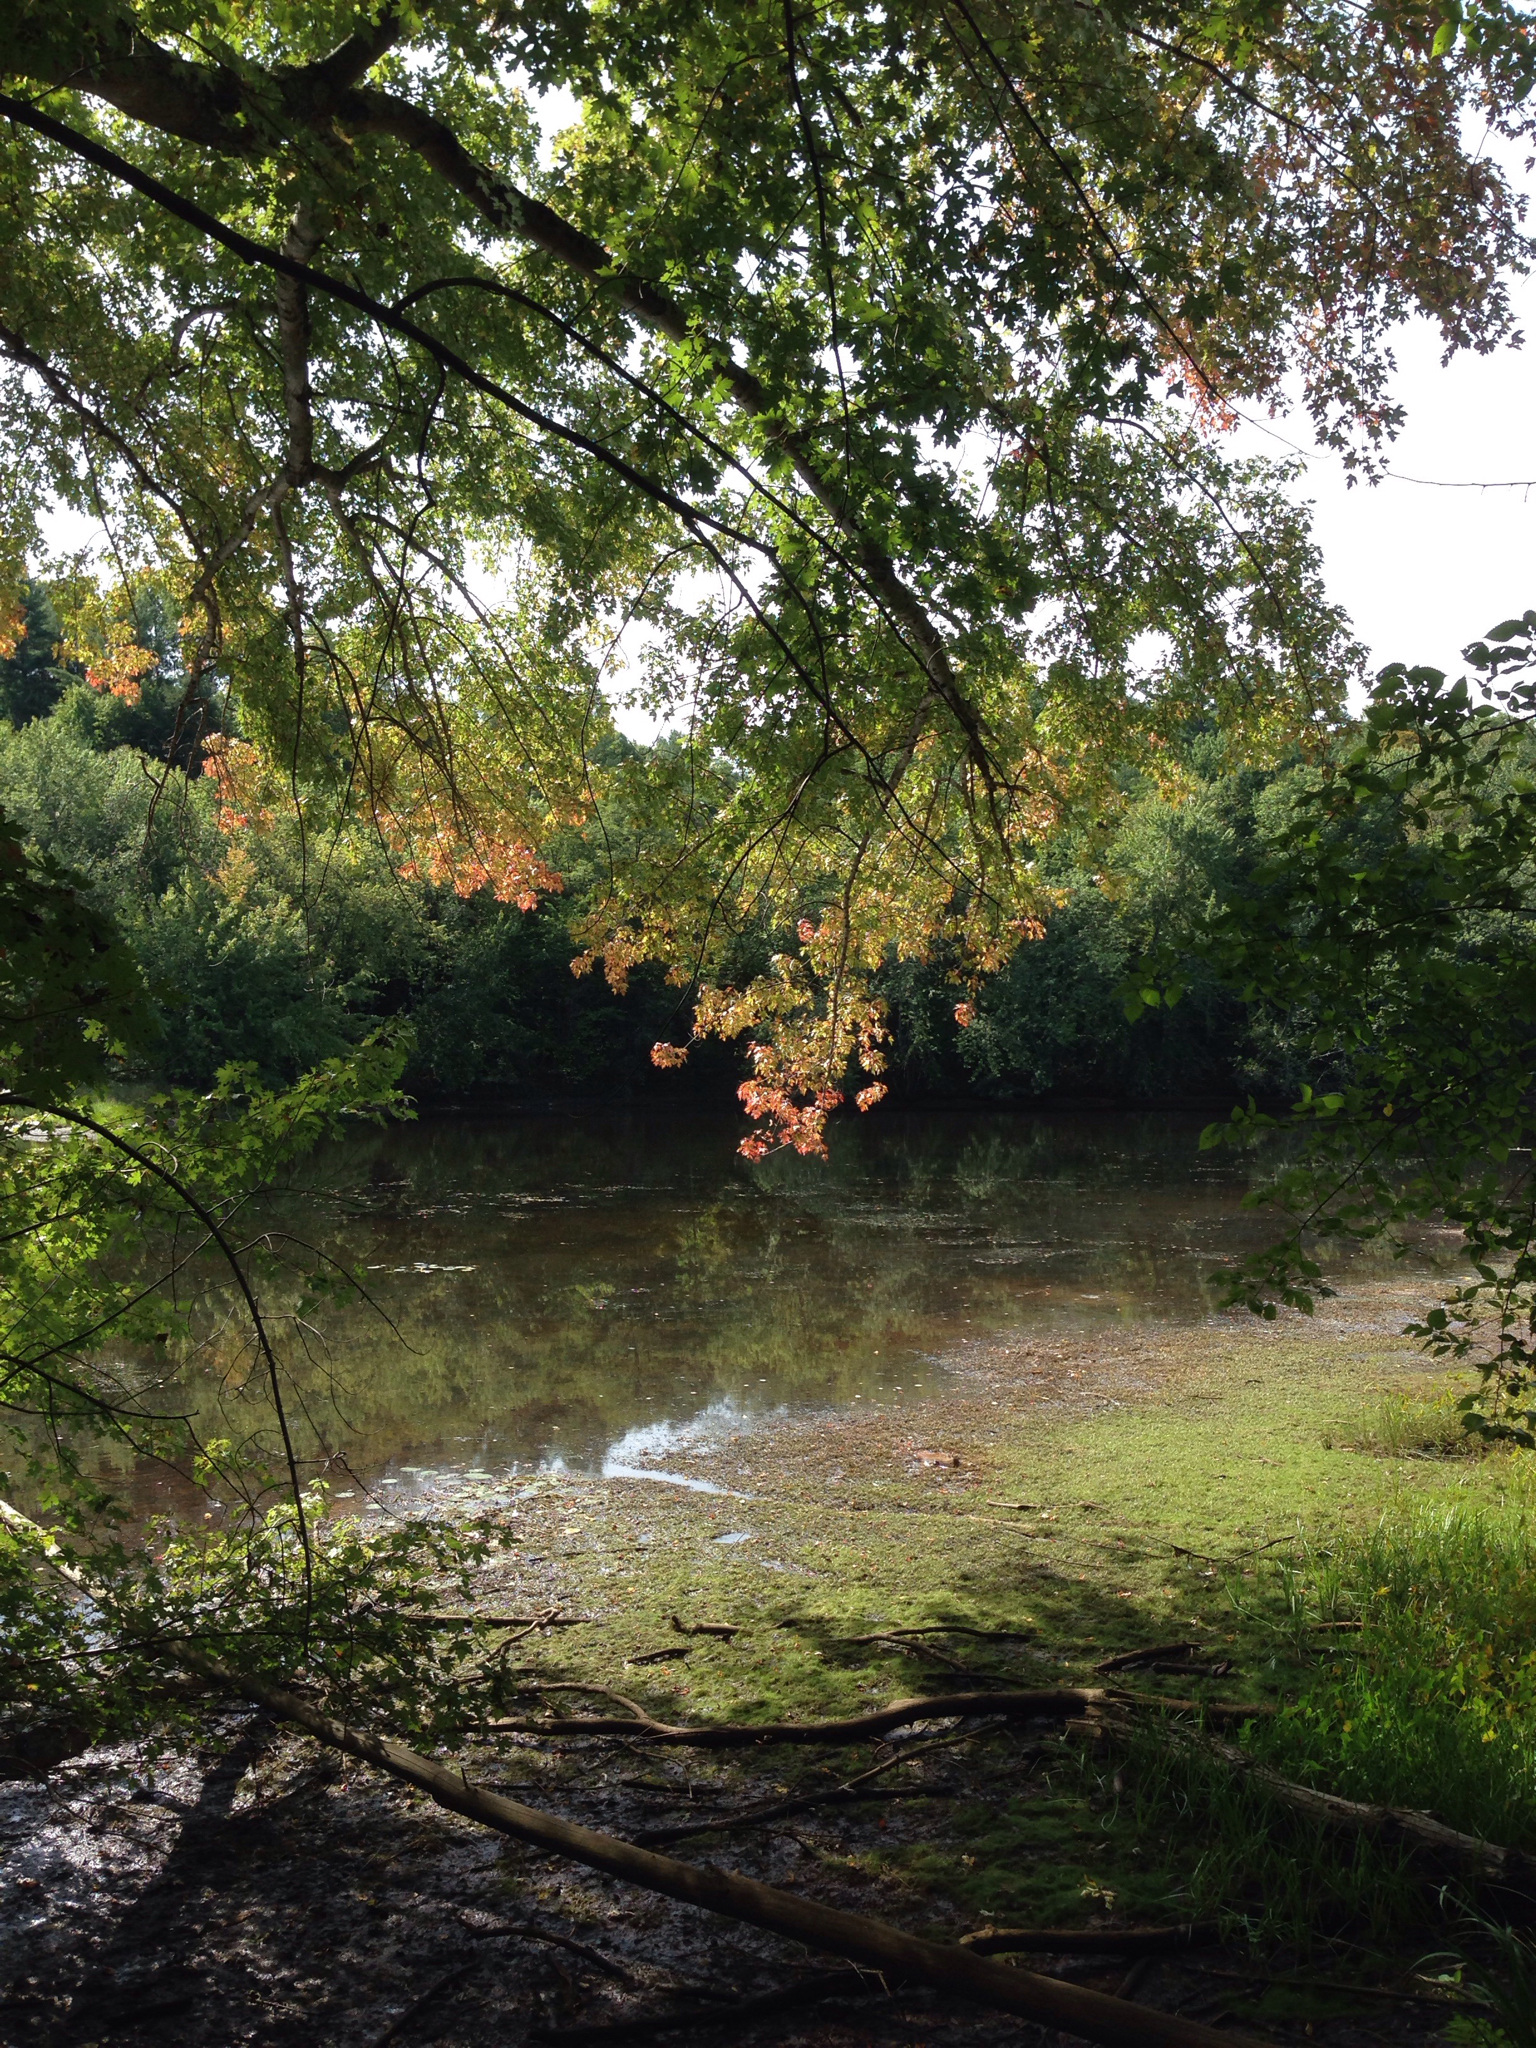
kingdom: Plantae
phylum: Tracheophyta
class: Magnoliopsida
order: Sapindales
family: Sapindaceae
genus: Acer
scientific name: Acer saccharinum
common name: Silver maple
